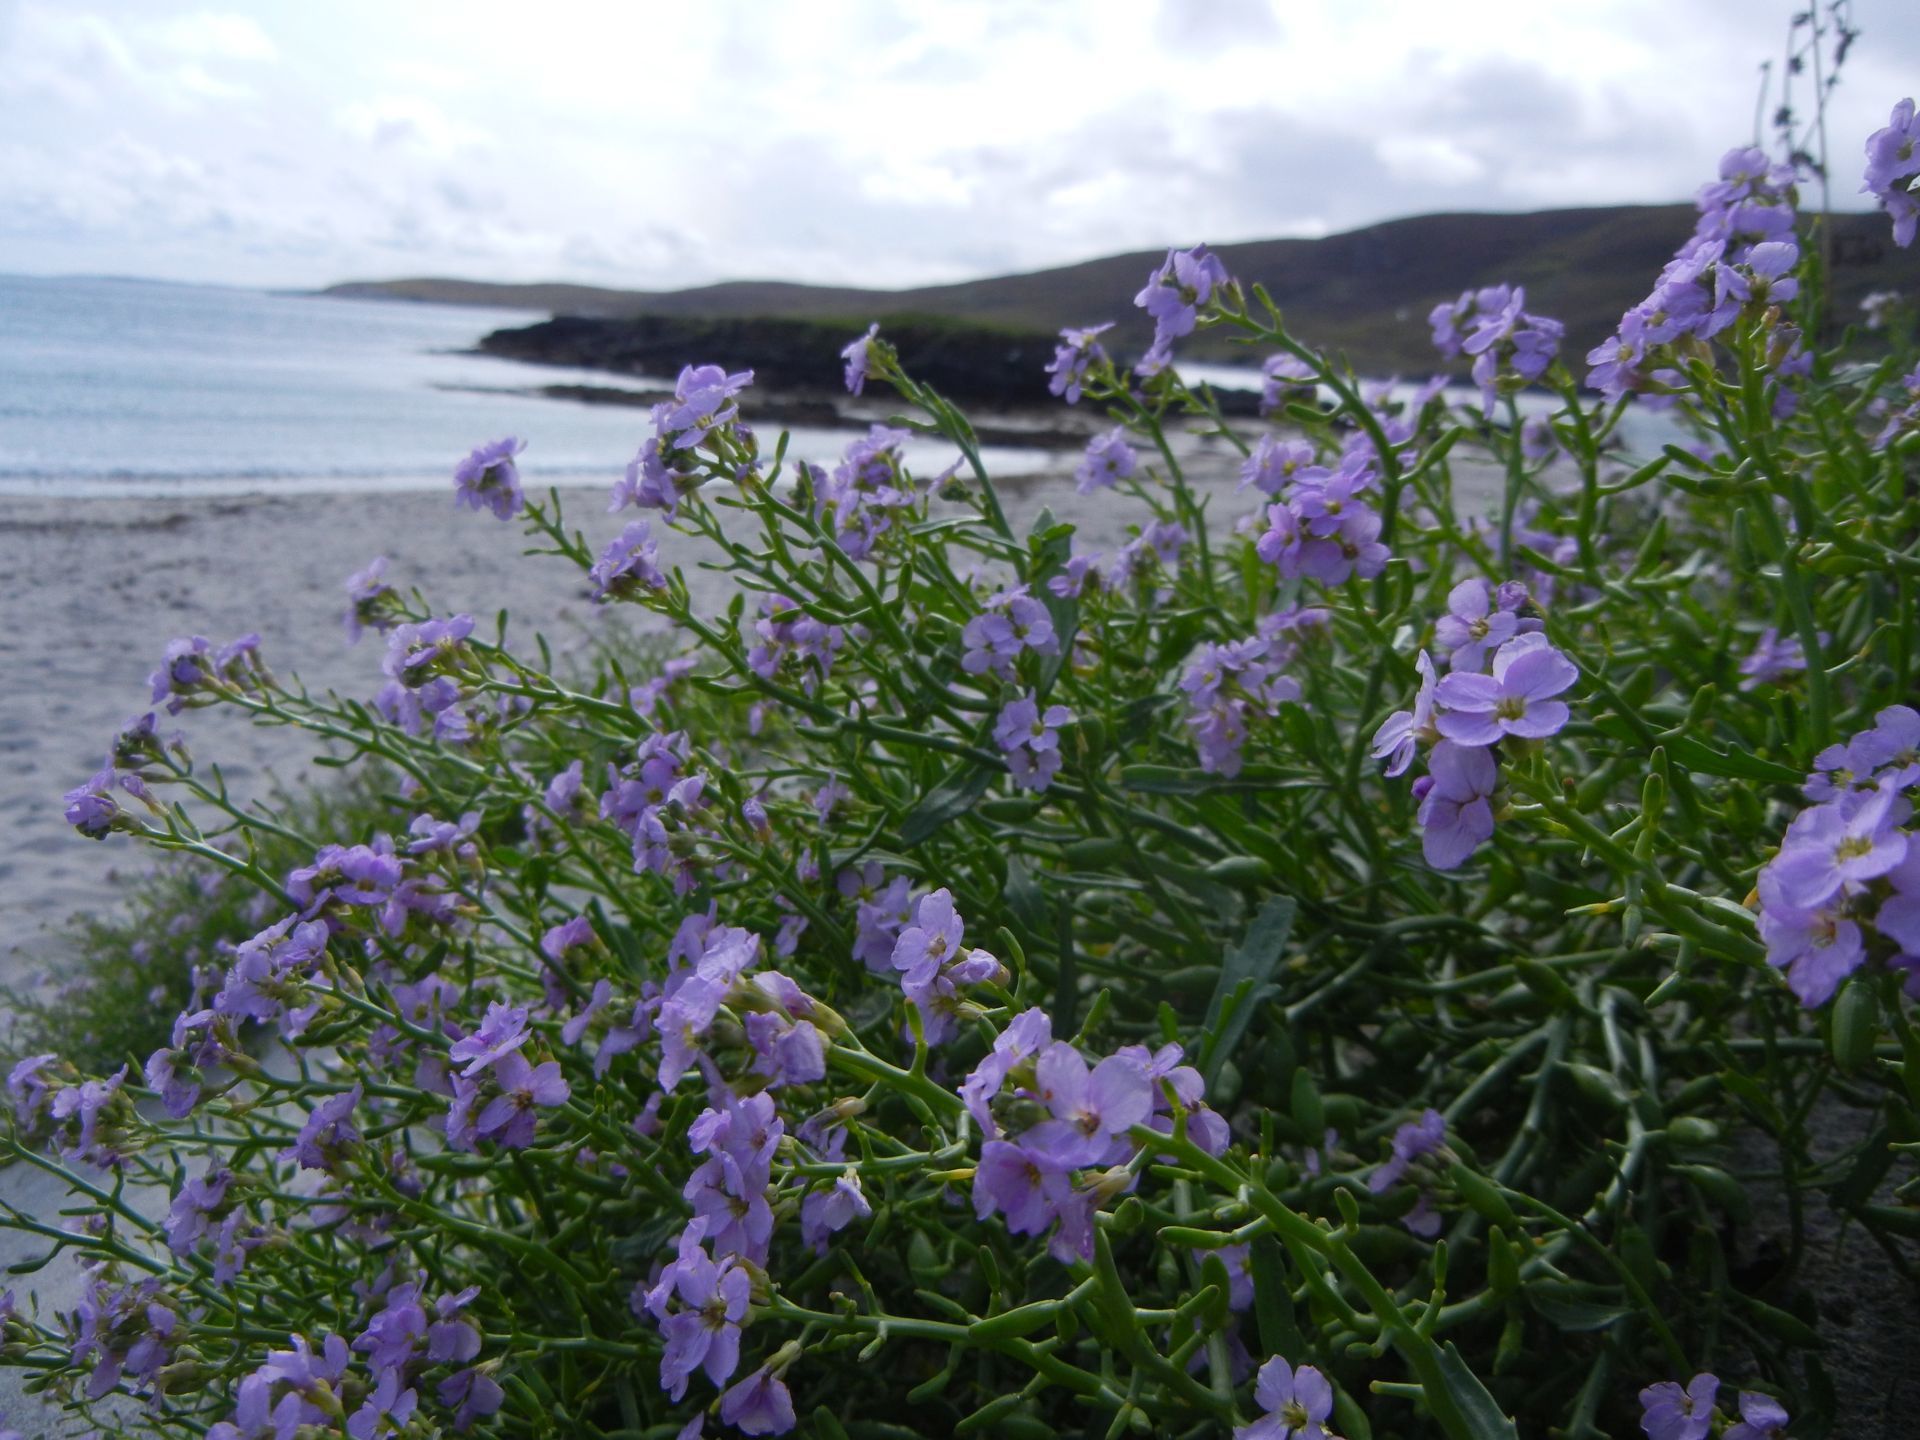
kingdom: Plantae
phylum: Tracheophyta
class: Magnoliopsida
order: Brassicales
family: Brassicaceae
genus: Cakile
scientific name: Cakile maritima
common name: Sea rocket
